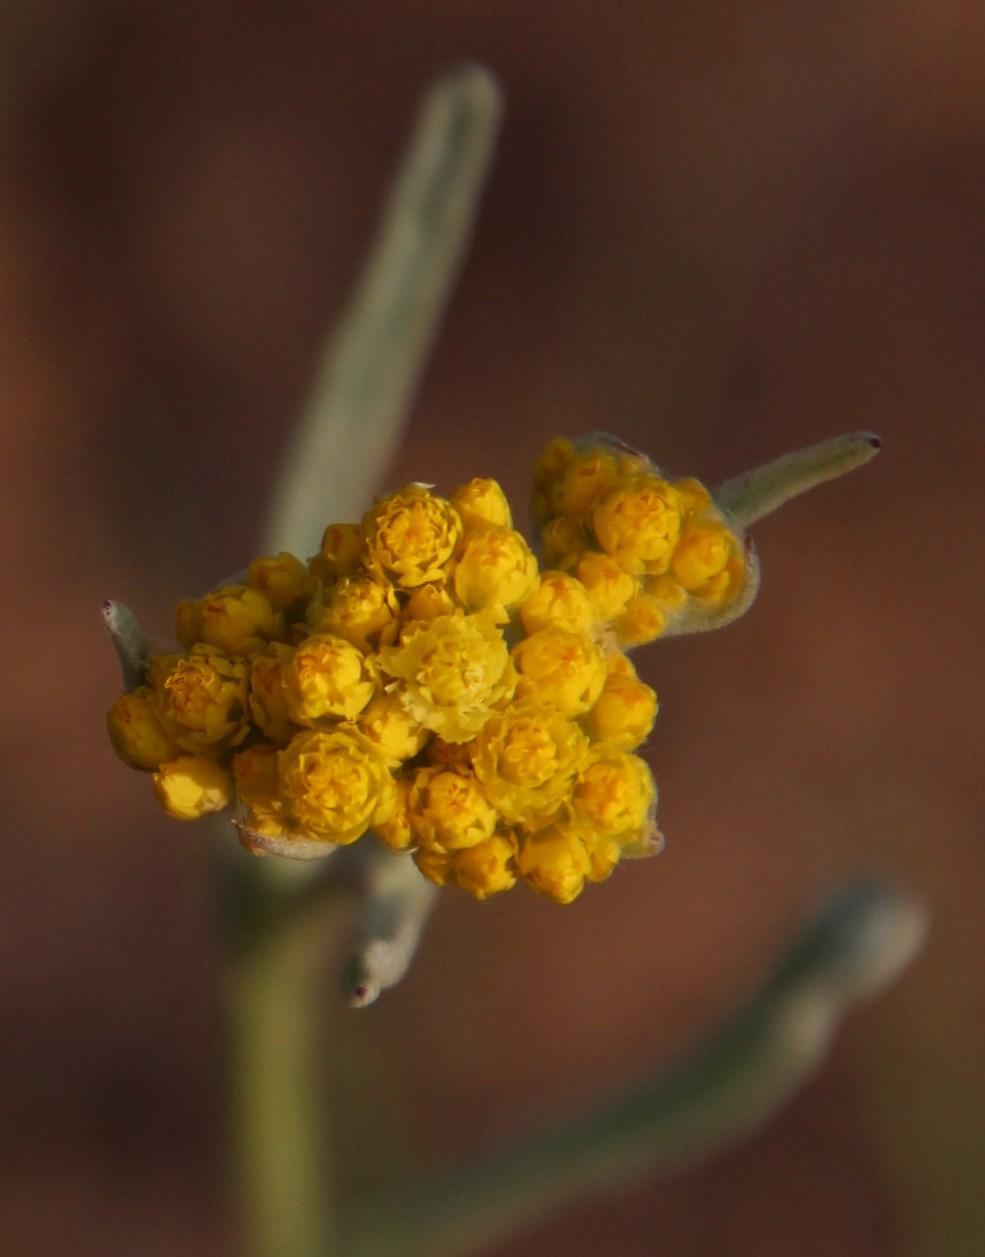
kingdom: Plantae
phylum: Tracheophyta
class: Magnoliopsida
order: Asterales
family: Asteraceae
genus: Helichrysum
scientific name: Helichrysum moeserianum
